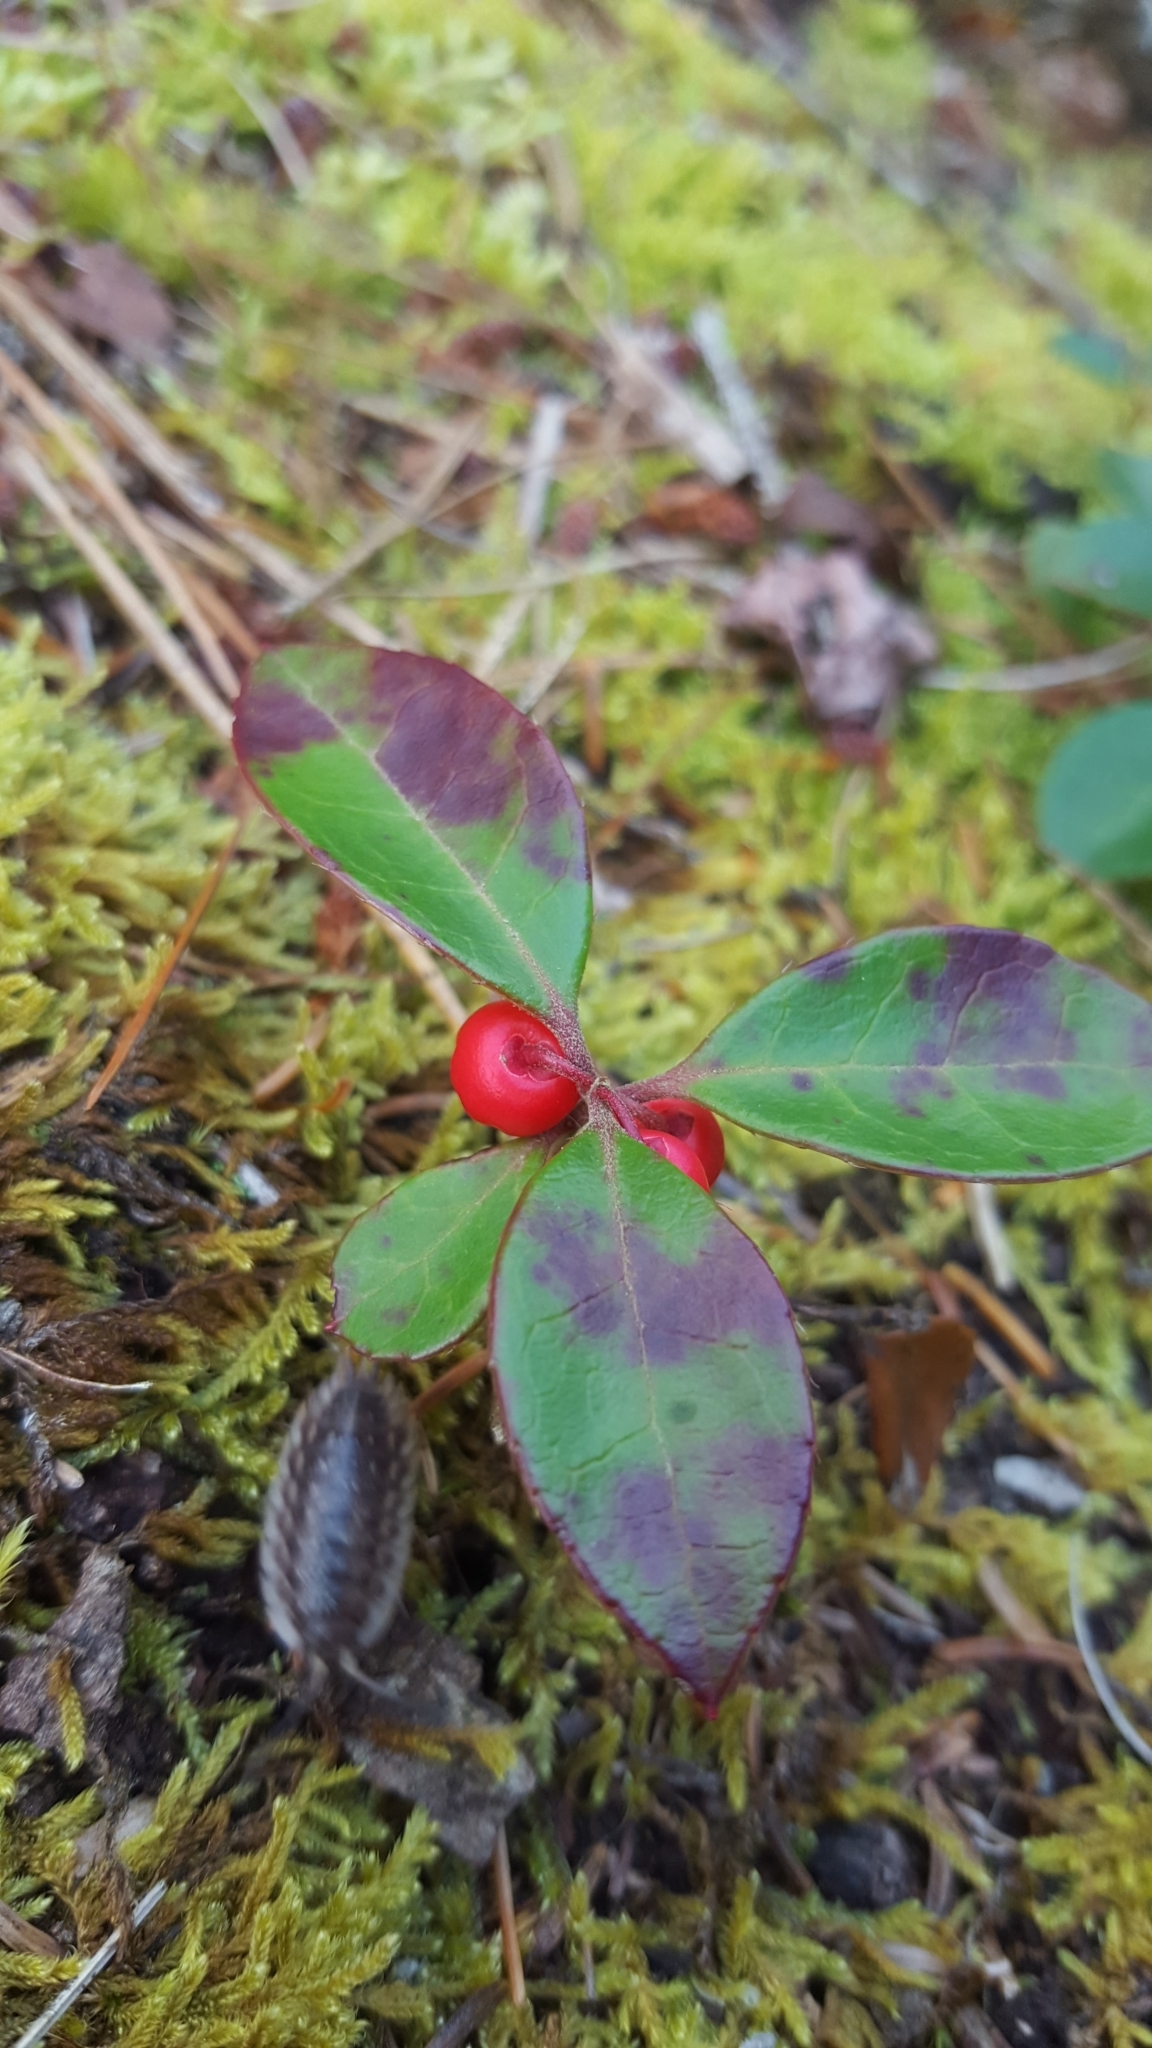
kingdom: Plantae
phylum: Tracheophyta
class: Magnoliopsida
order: Ericales
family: Ericaceae
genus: Gaultheria
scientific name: Gaultheria procumbens
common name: Checkerberry
